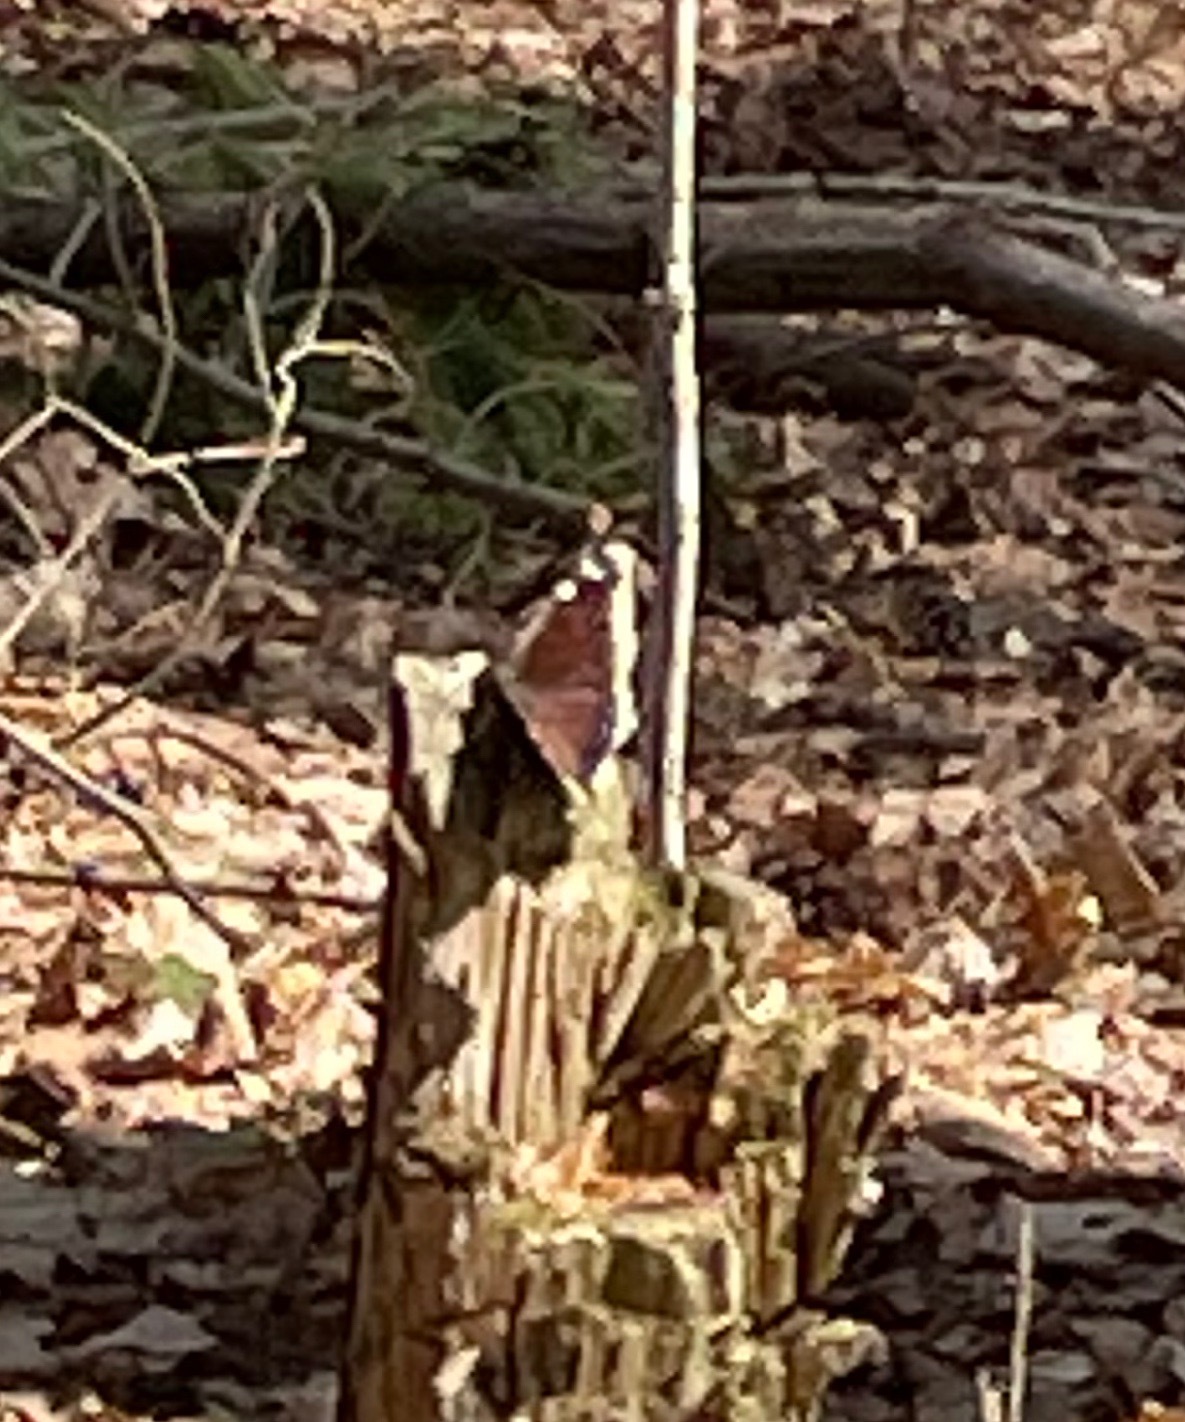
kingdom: Animalia
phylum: Arthropoda
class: Insecta
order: Lepidoptera
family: Nymphalidae
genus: Nymphalis
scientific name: Nymphalis antiopa
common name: Camberwell beauty
